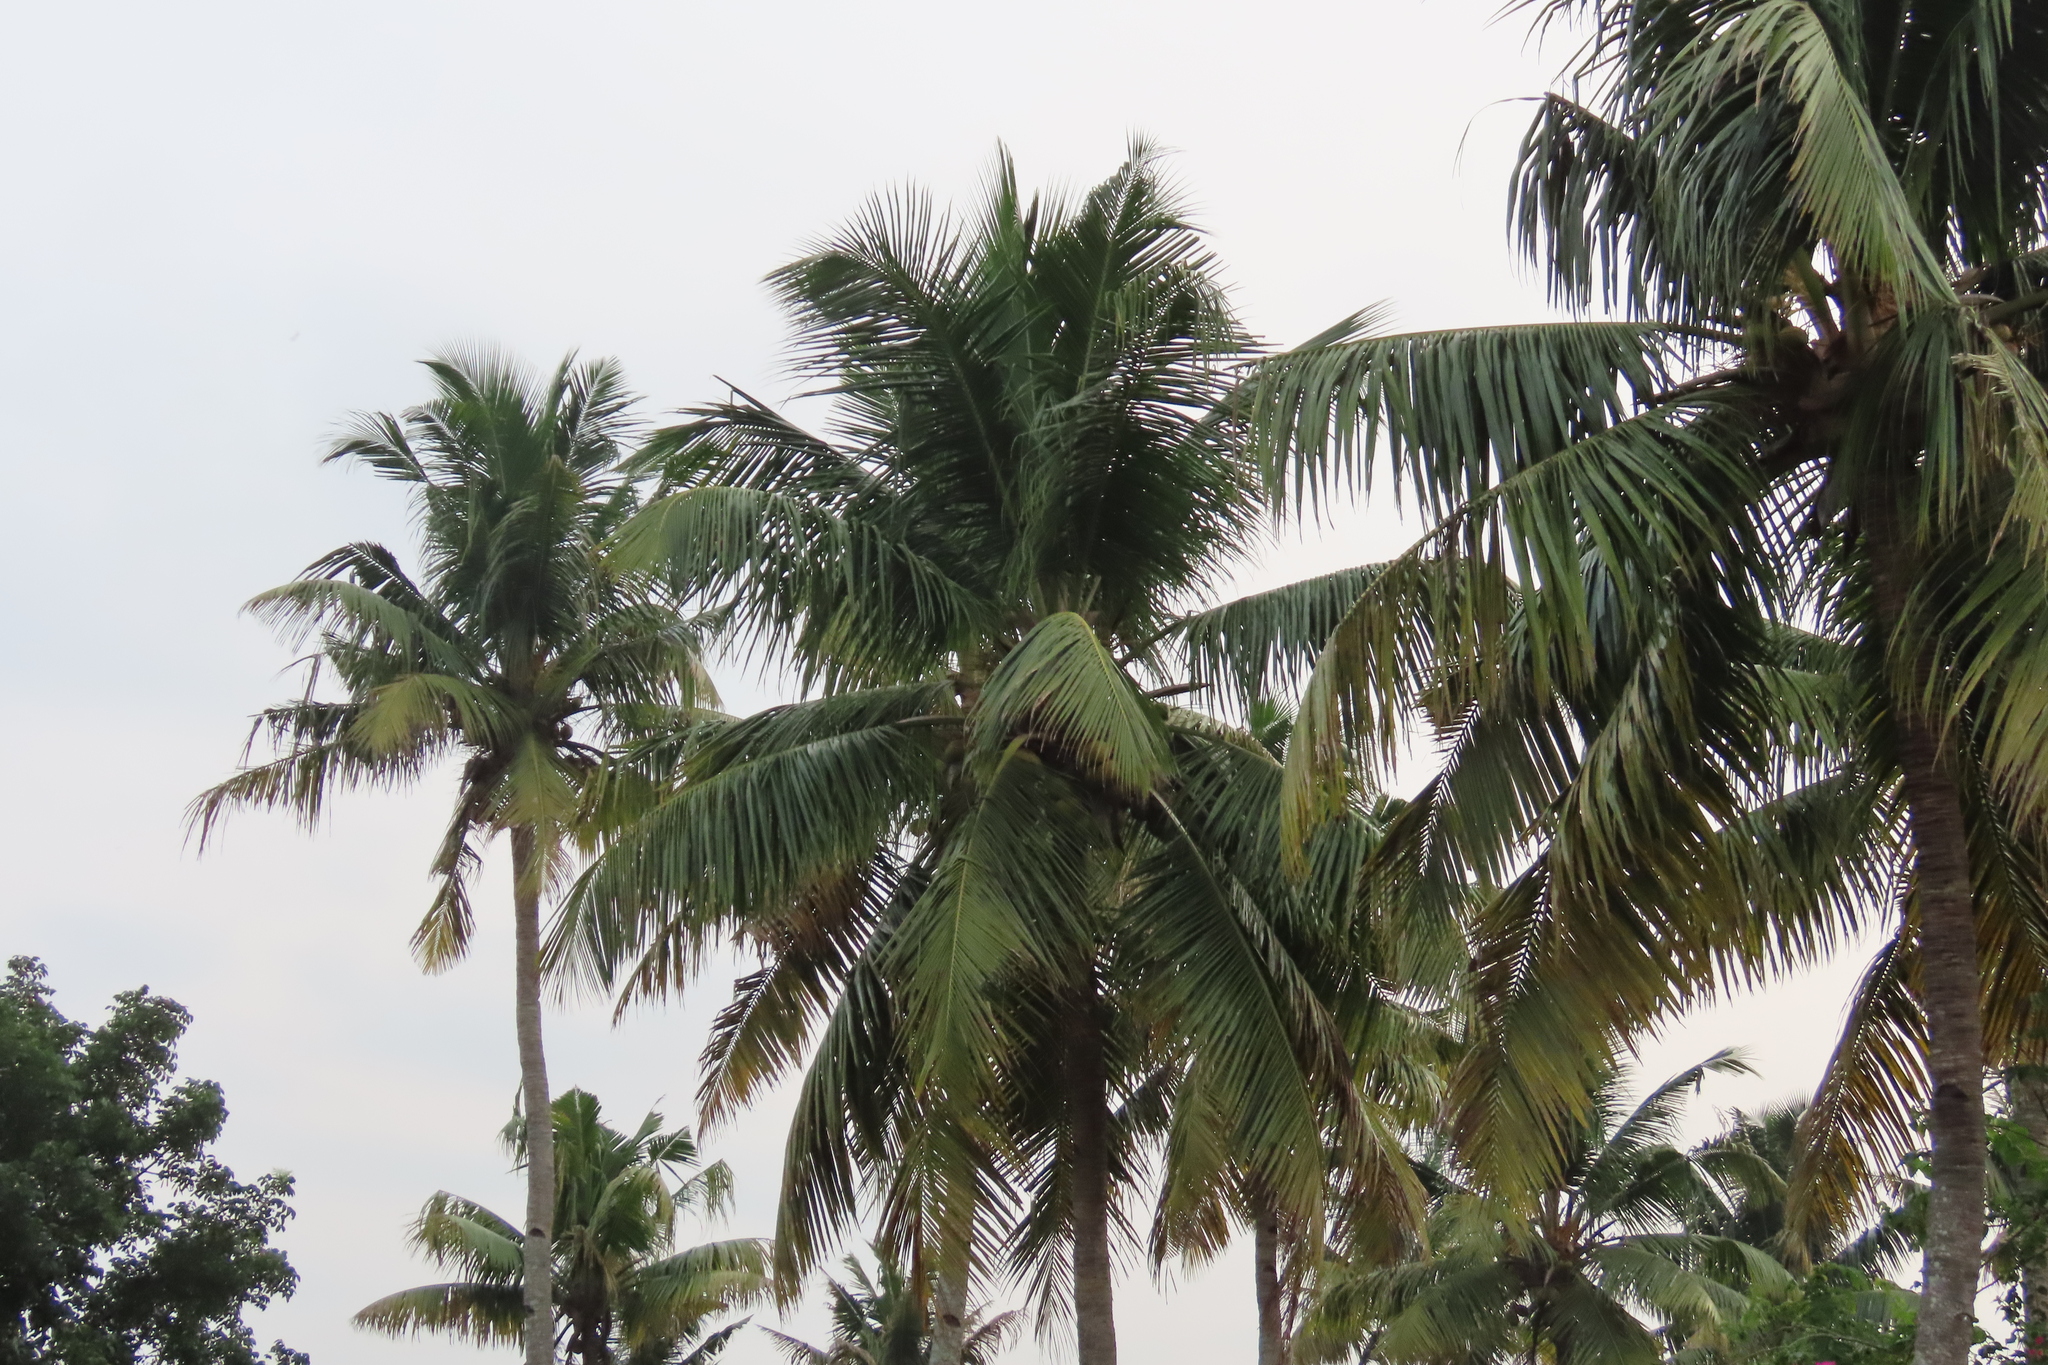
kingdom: Plantae
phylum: Tracheophyta
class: Liliopsida
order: Arecales
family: Arecaceae
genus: Cocos
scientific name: Cocos nucifera
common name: Coconut palm
